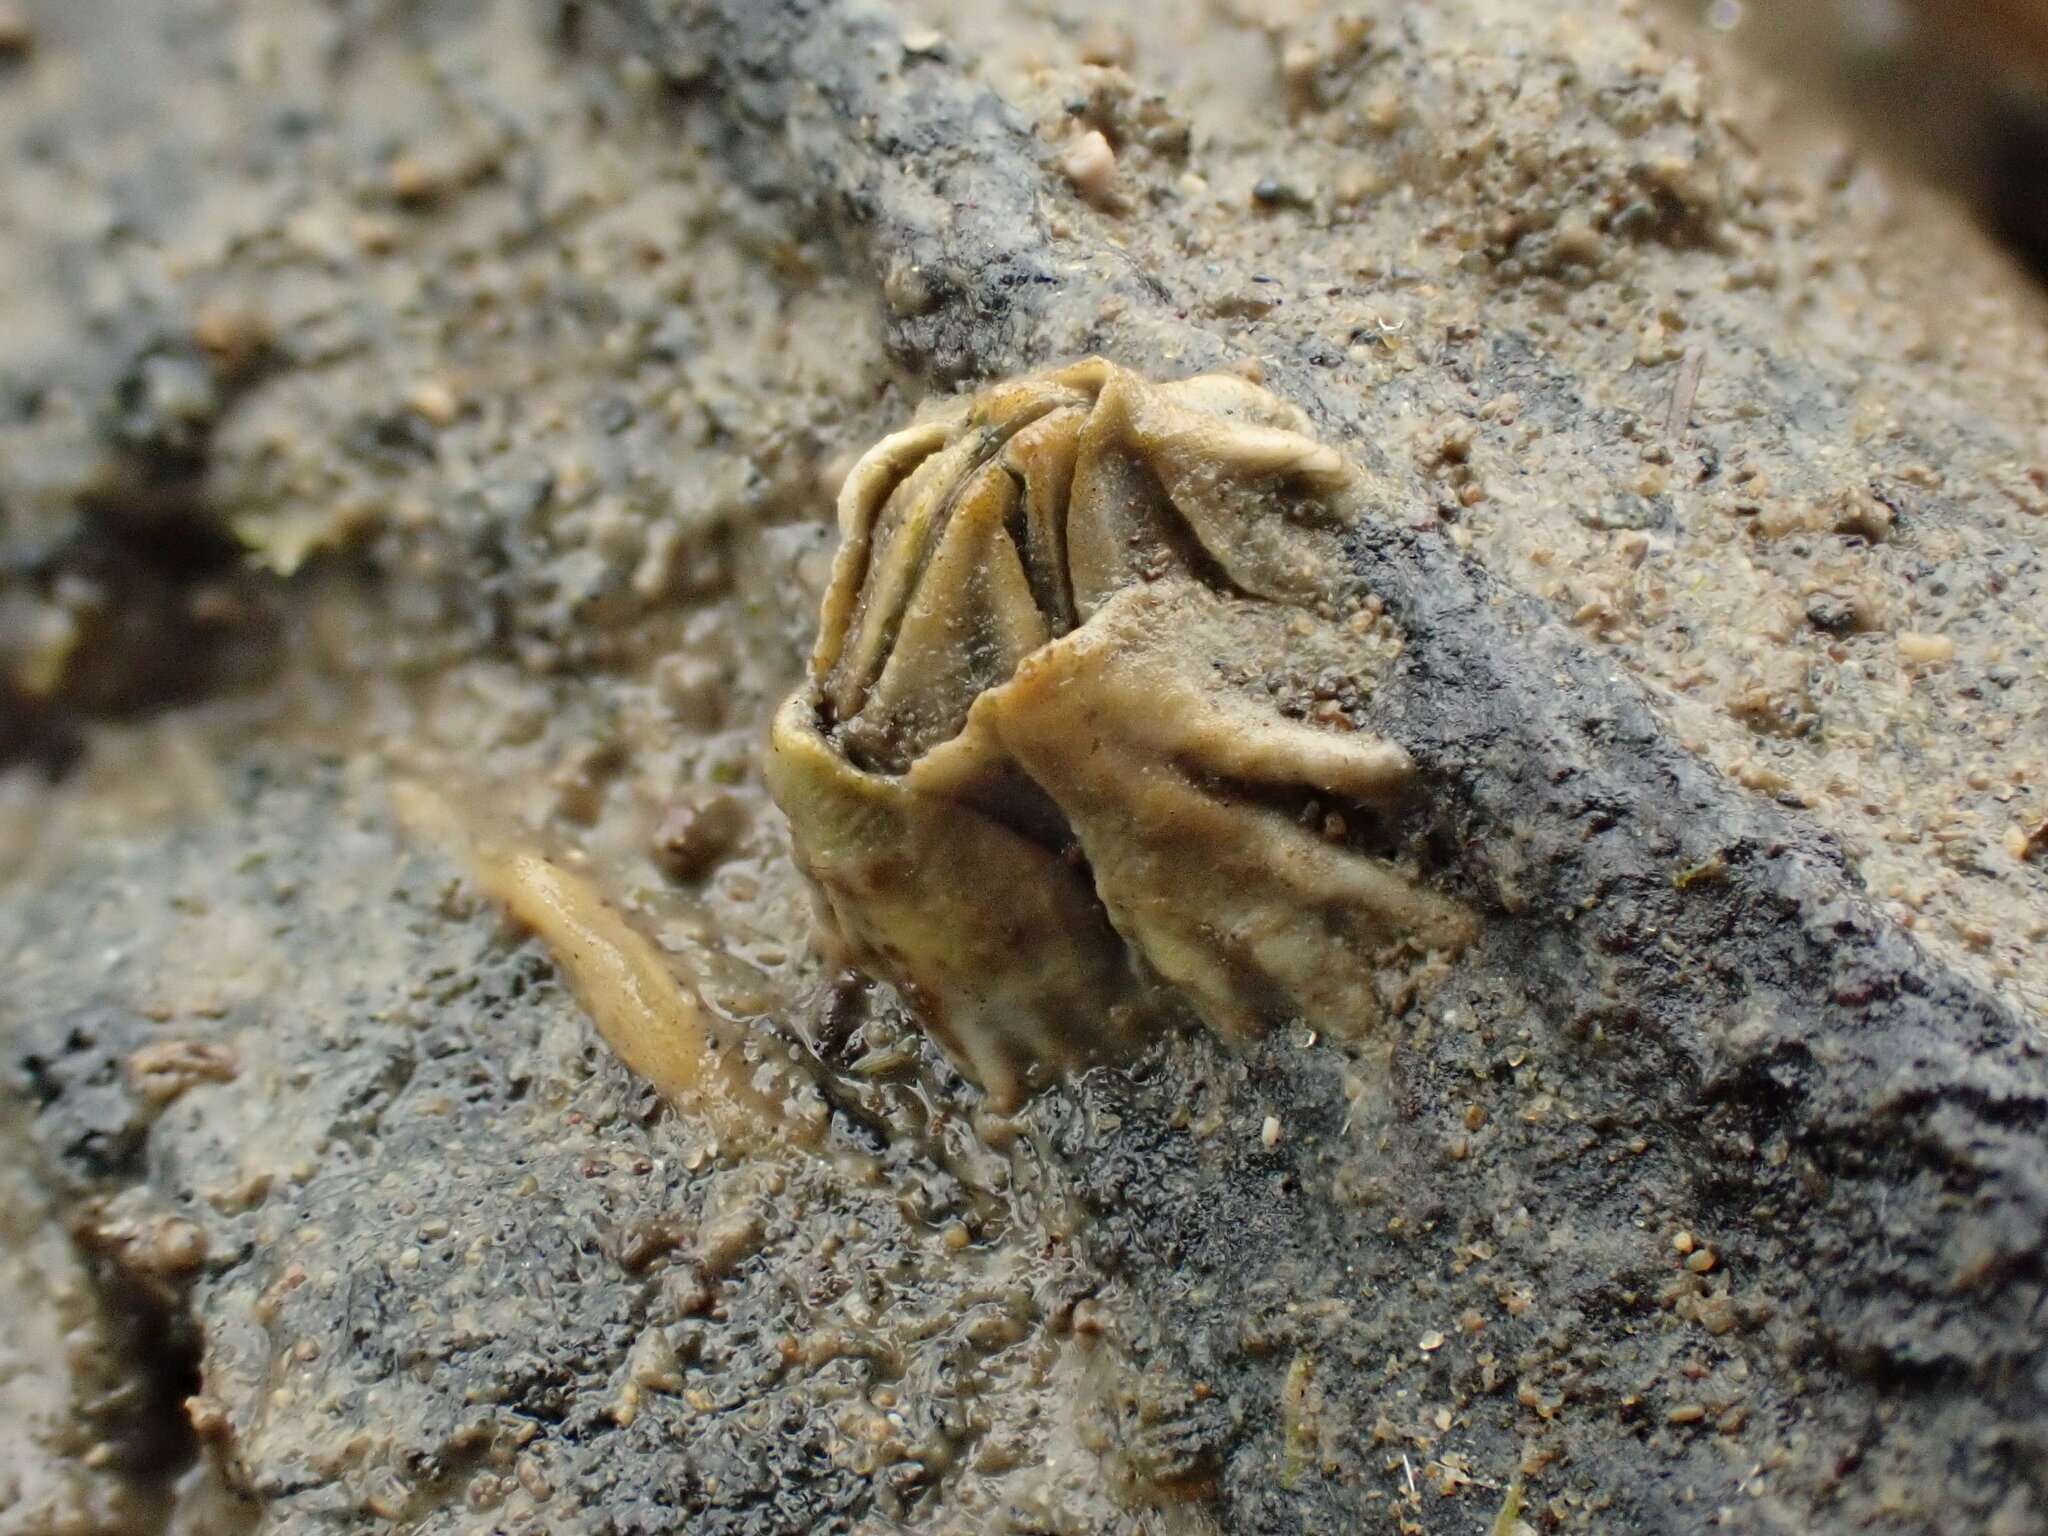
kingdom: Animalia
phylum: Arthropoda
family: Elminiidae
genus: Austrominius
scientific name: Austrominius modestus
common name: Australasian barnacle
